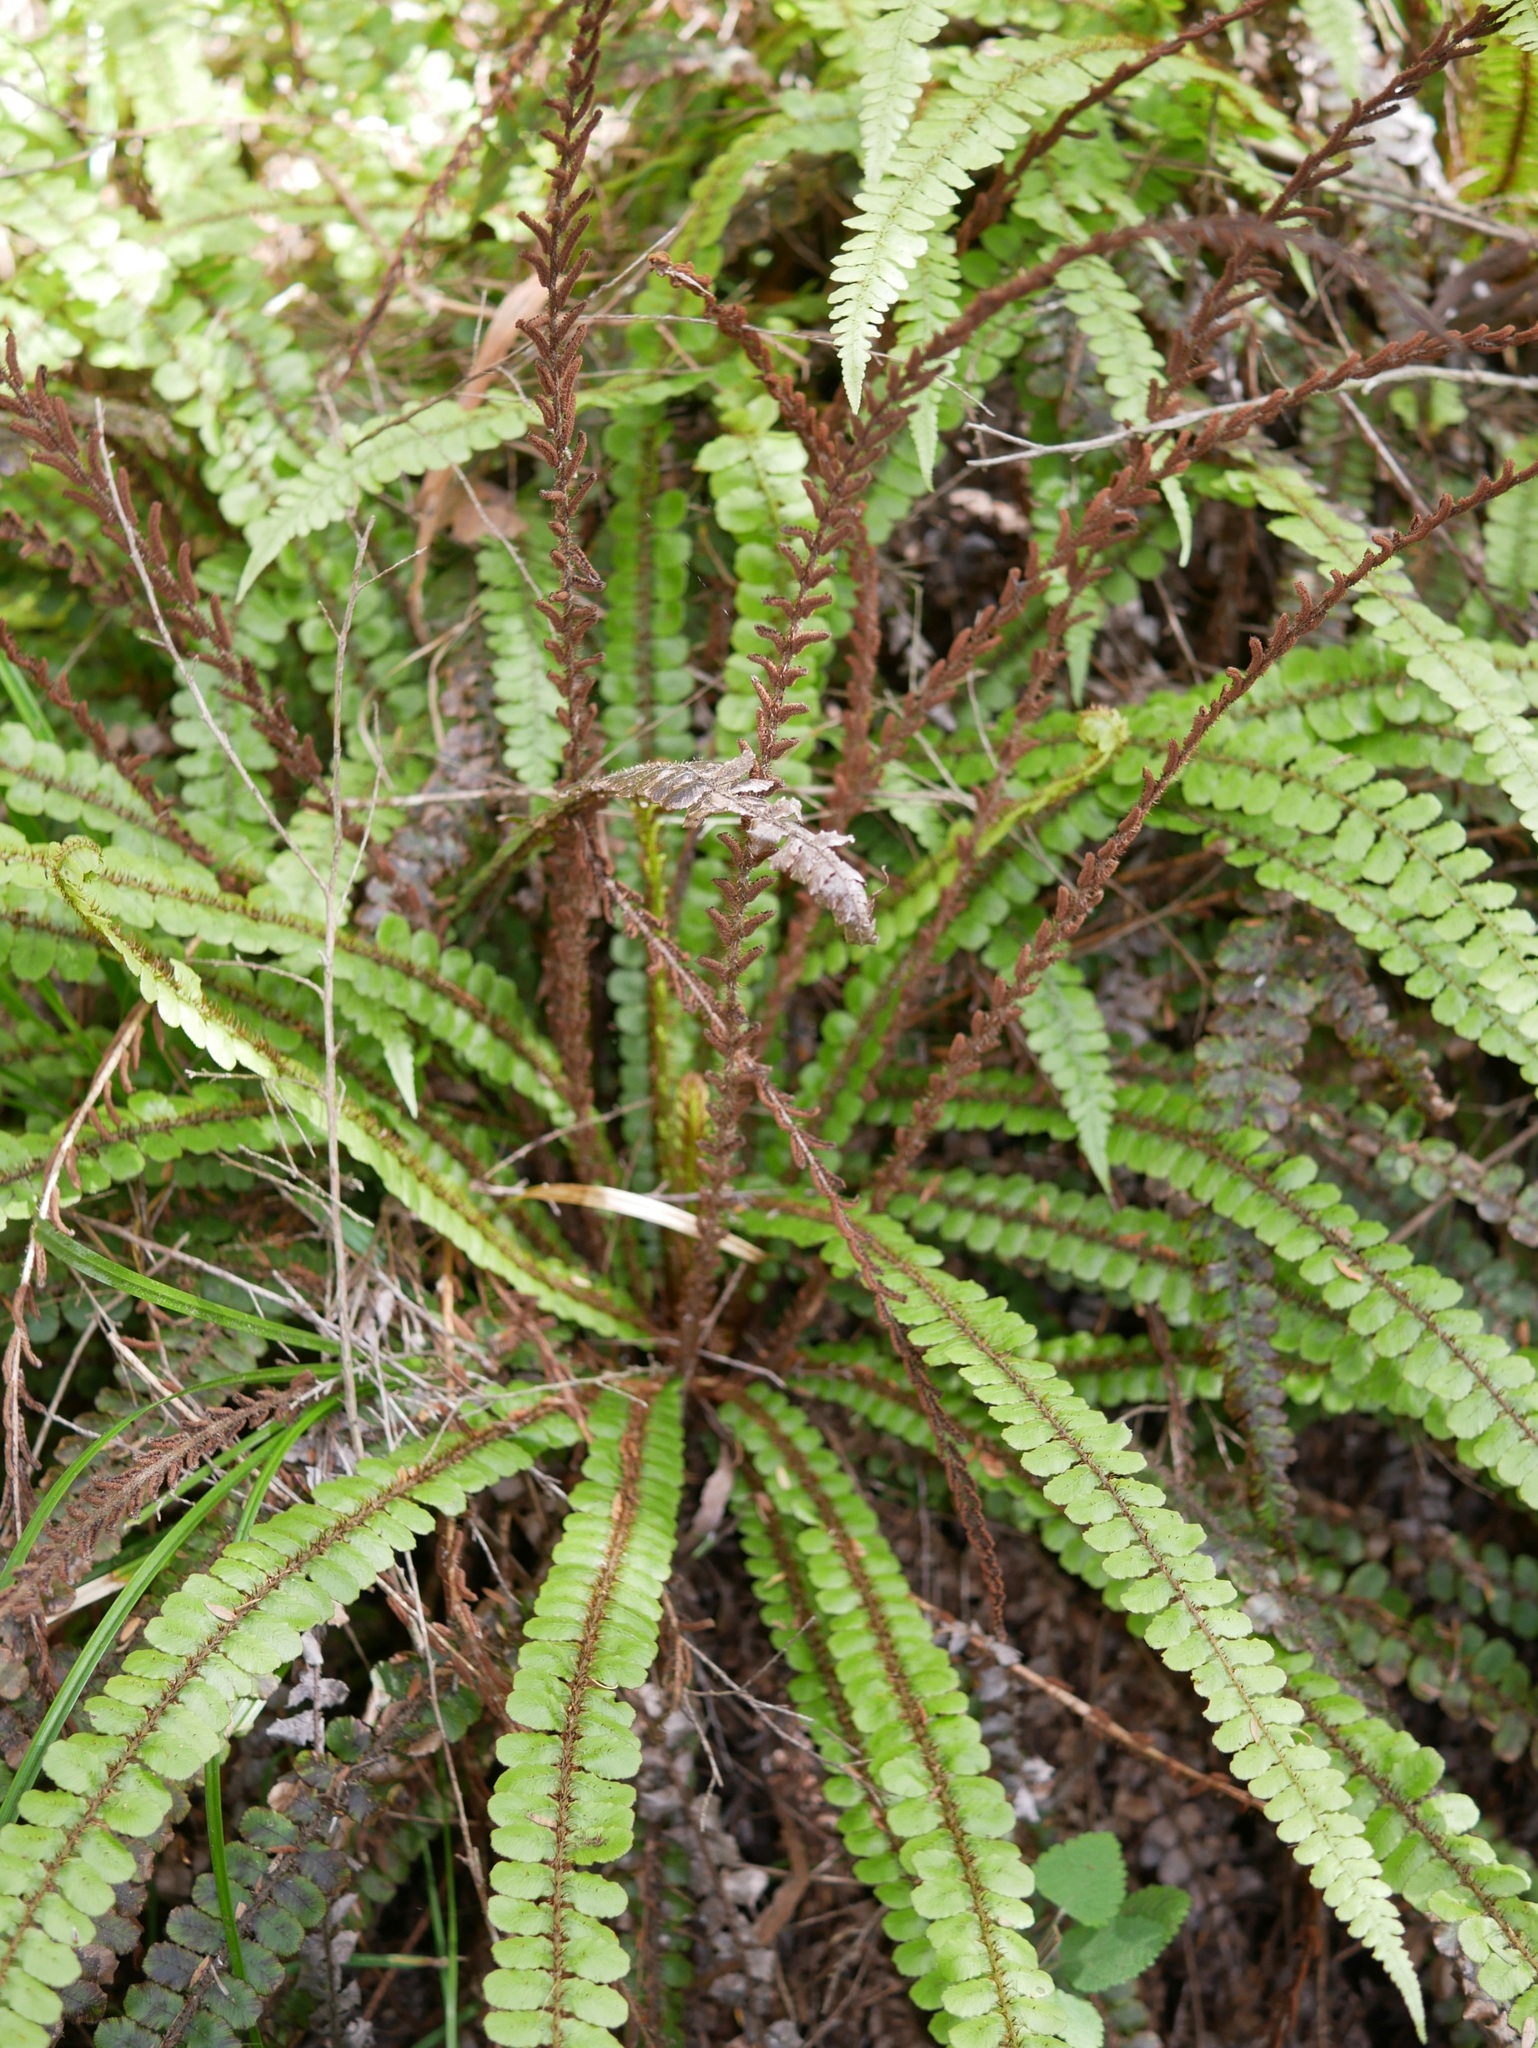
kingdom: Plantae
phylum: Tracheophyta
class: Polypodiopsida
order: Polypodiales
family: Blechnaceae
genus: Cranfillia
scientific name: Cranfillia fluviatilis
